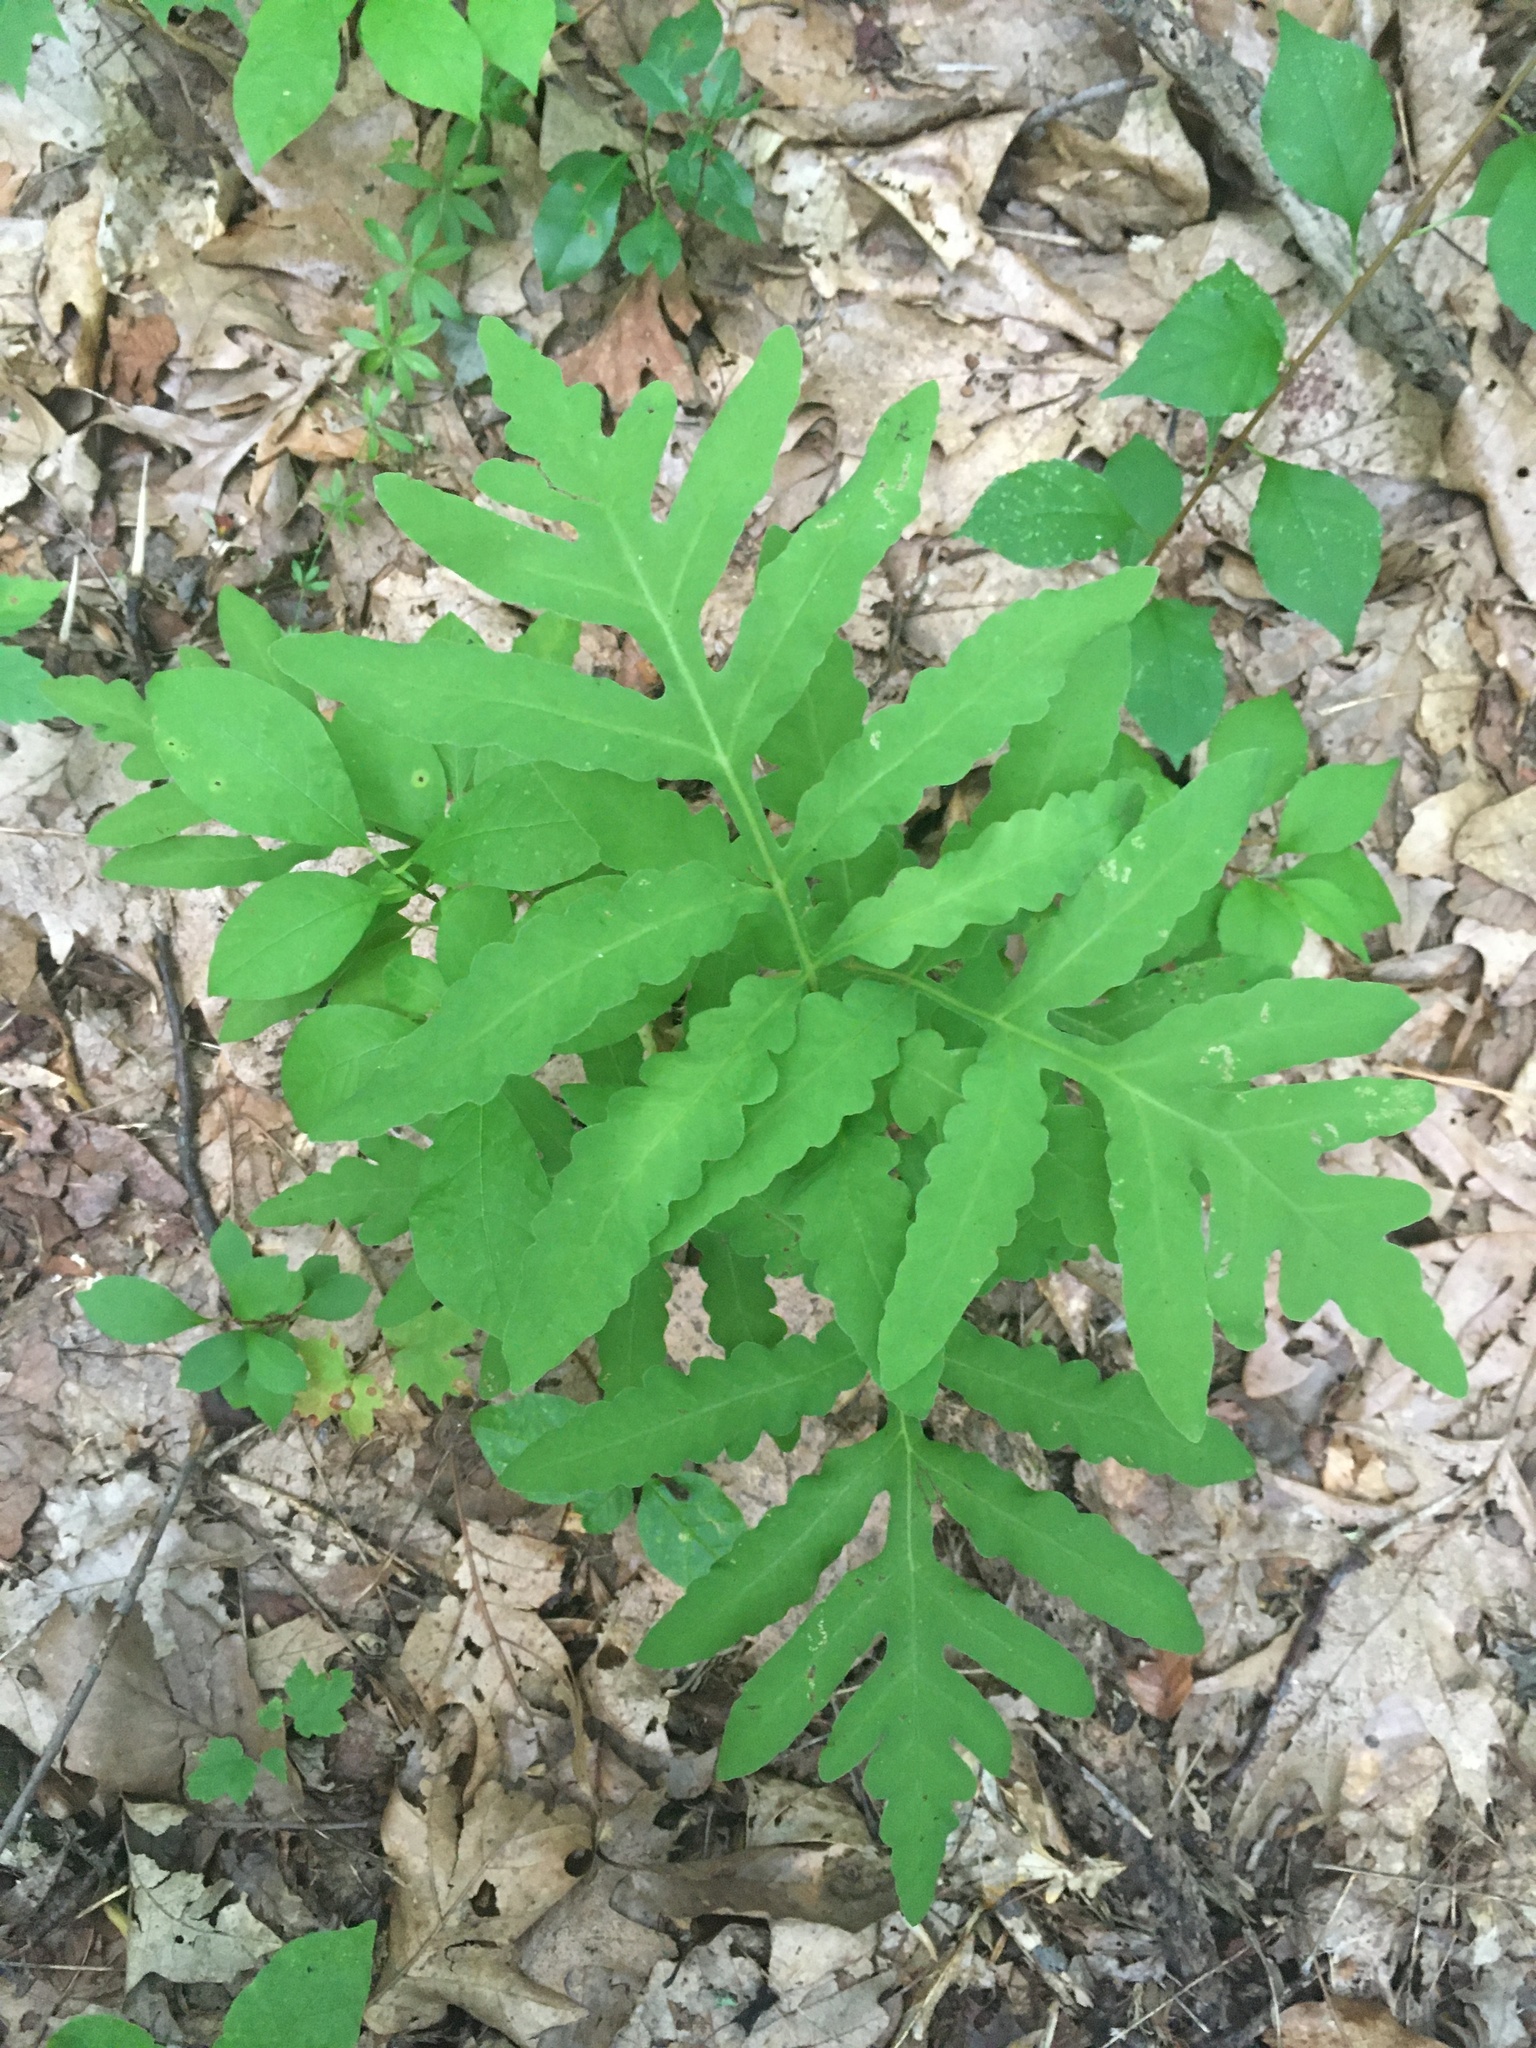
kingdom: Plantae
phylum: Tracheophyta
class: Polypodiopsida
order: Polypodiales
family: Onocleaceae
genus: Onoclea
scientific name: Onoclea sensibilis
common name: Sensitive fern
